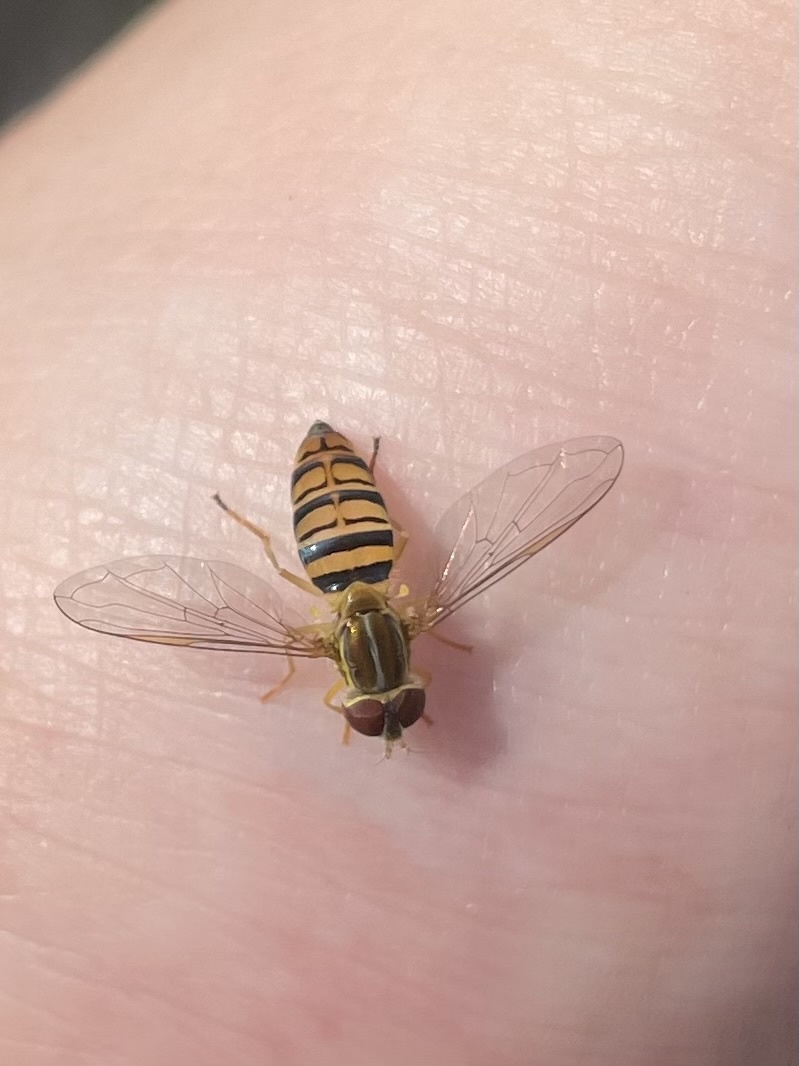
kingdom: Animalia
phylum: Arthropoda
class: Insecta
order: Diptera
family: Syrphidae
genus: Toxomerus
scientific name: Toxomerus politus
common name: Maize calligrapher
